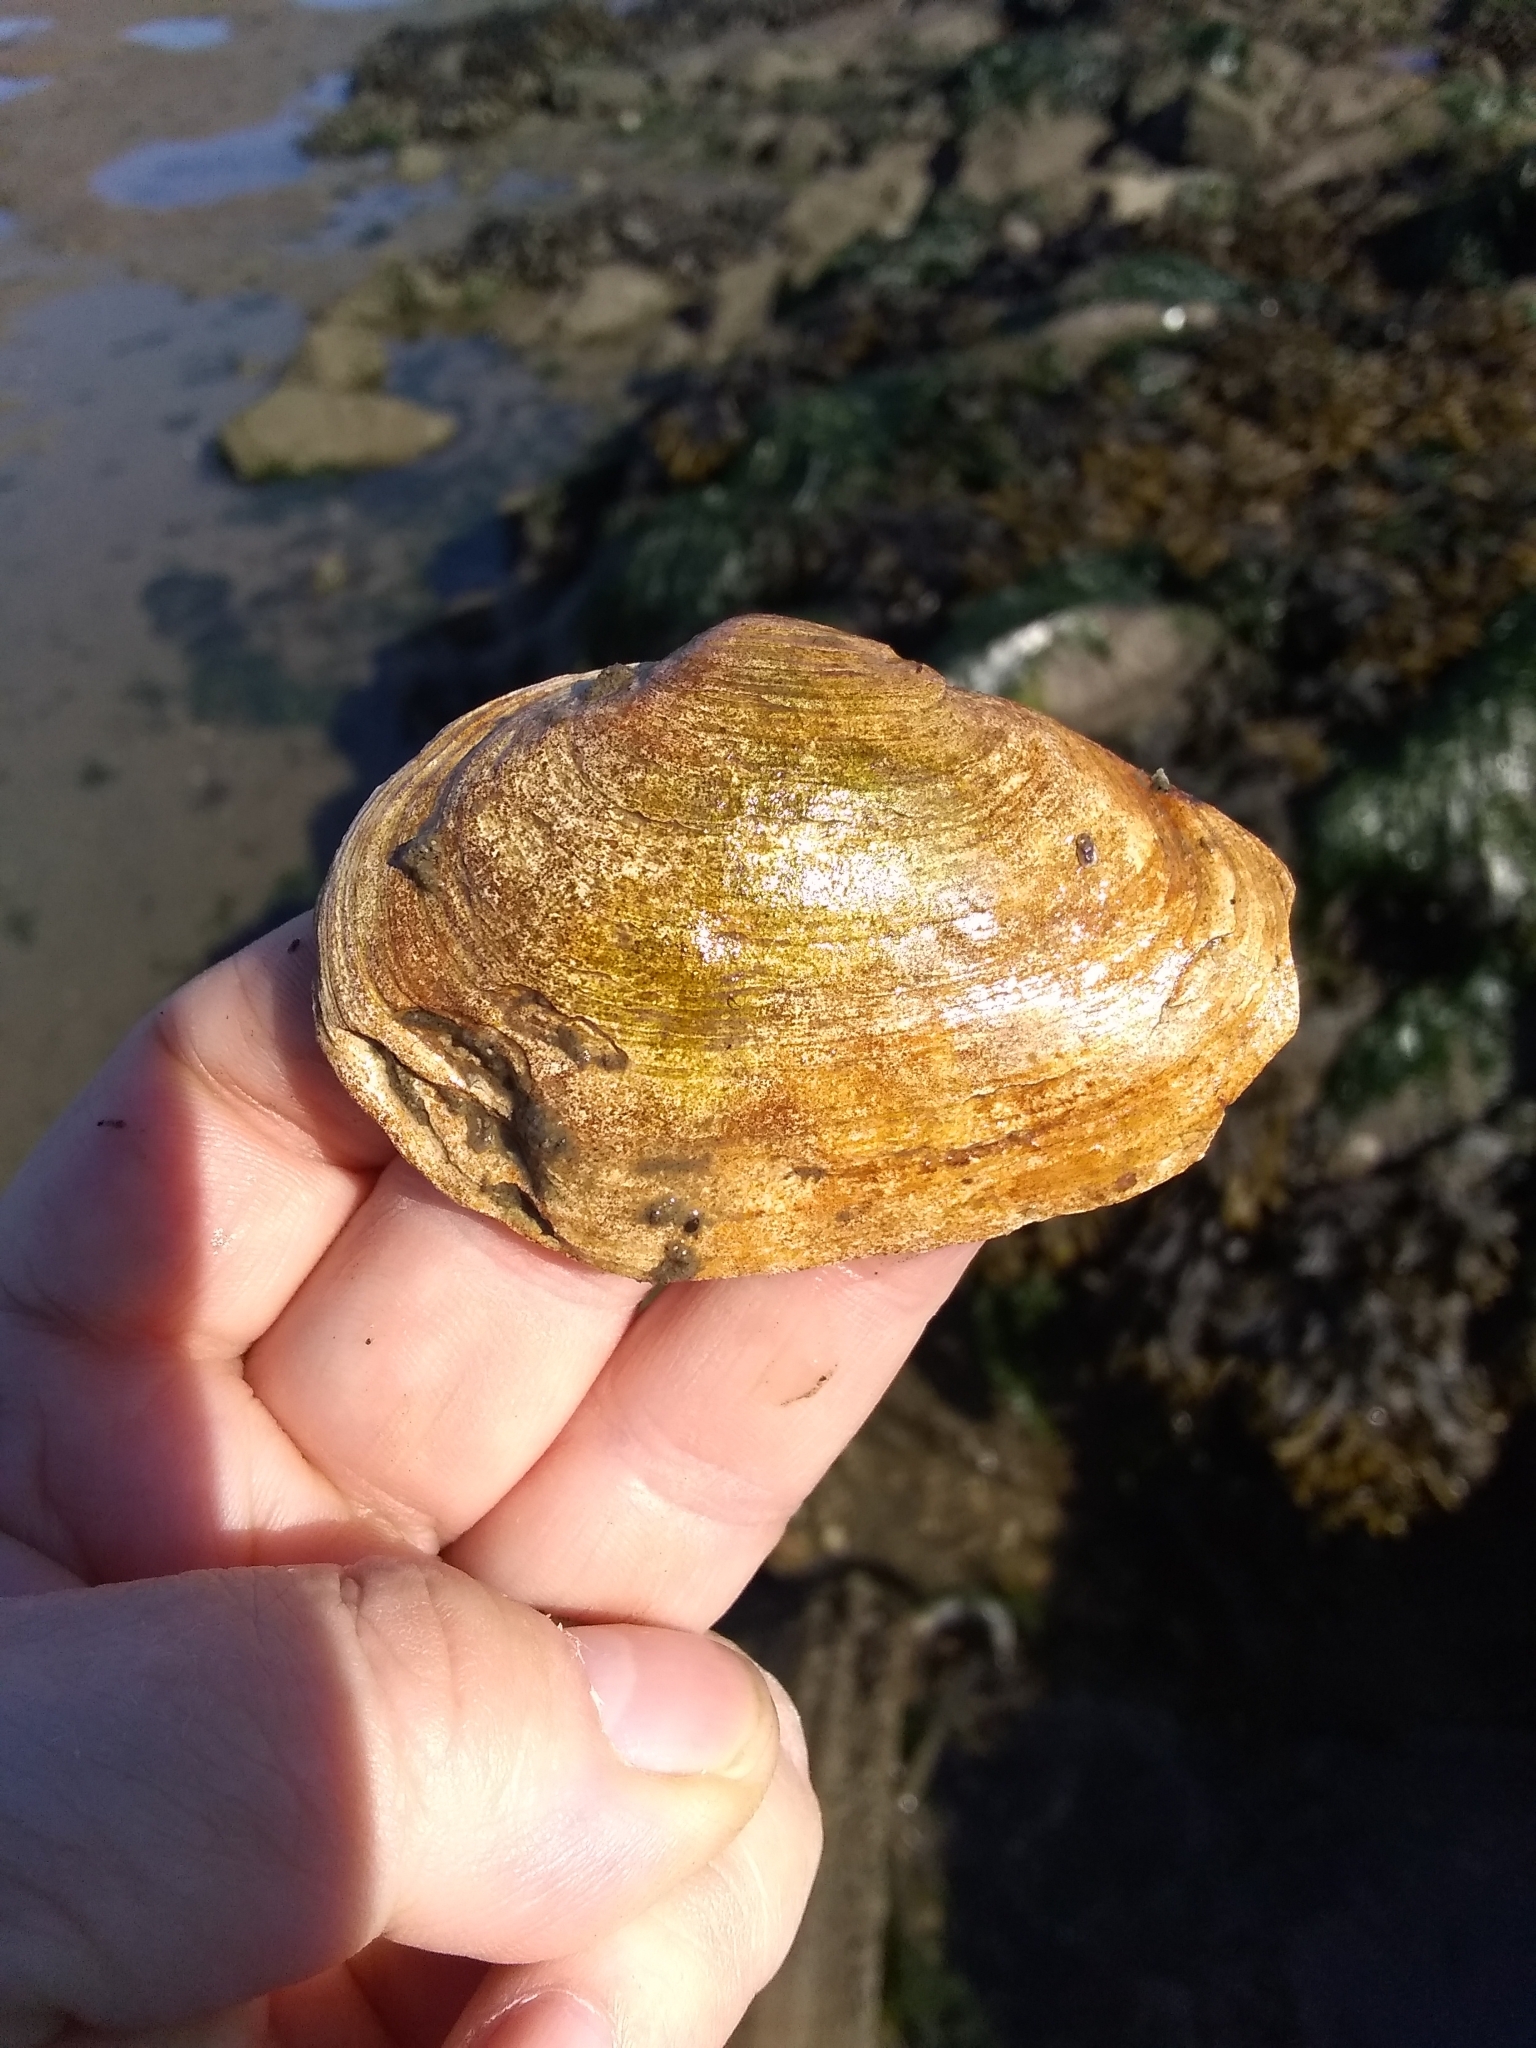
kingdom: Animalia
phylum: Mollusca
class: Bivalvia
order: Myida
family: Myidae
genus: Mya
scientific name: Mya arenaria
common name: Soft-shelled clam
